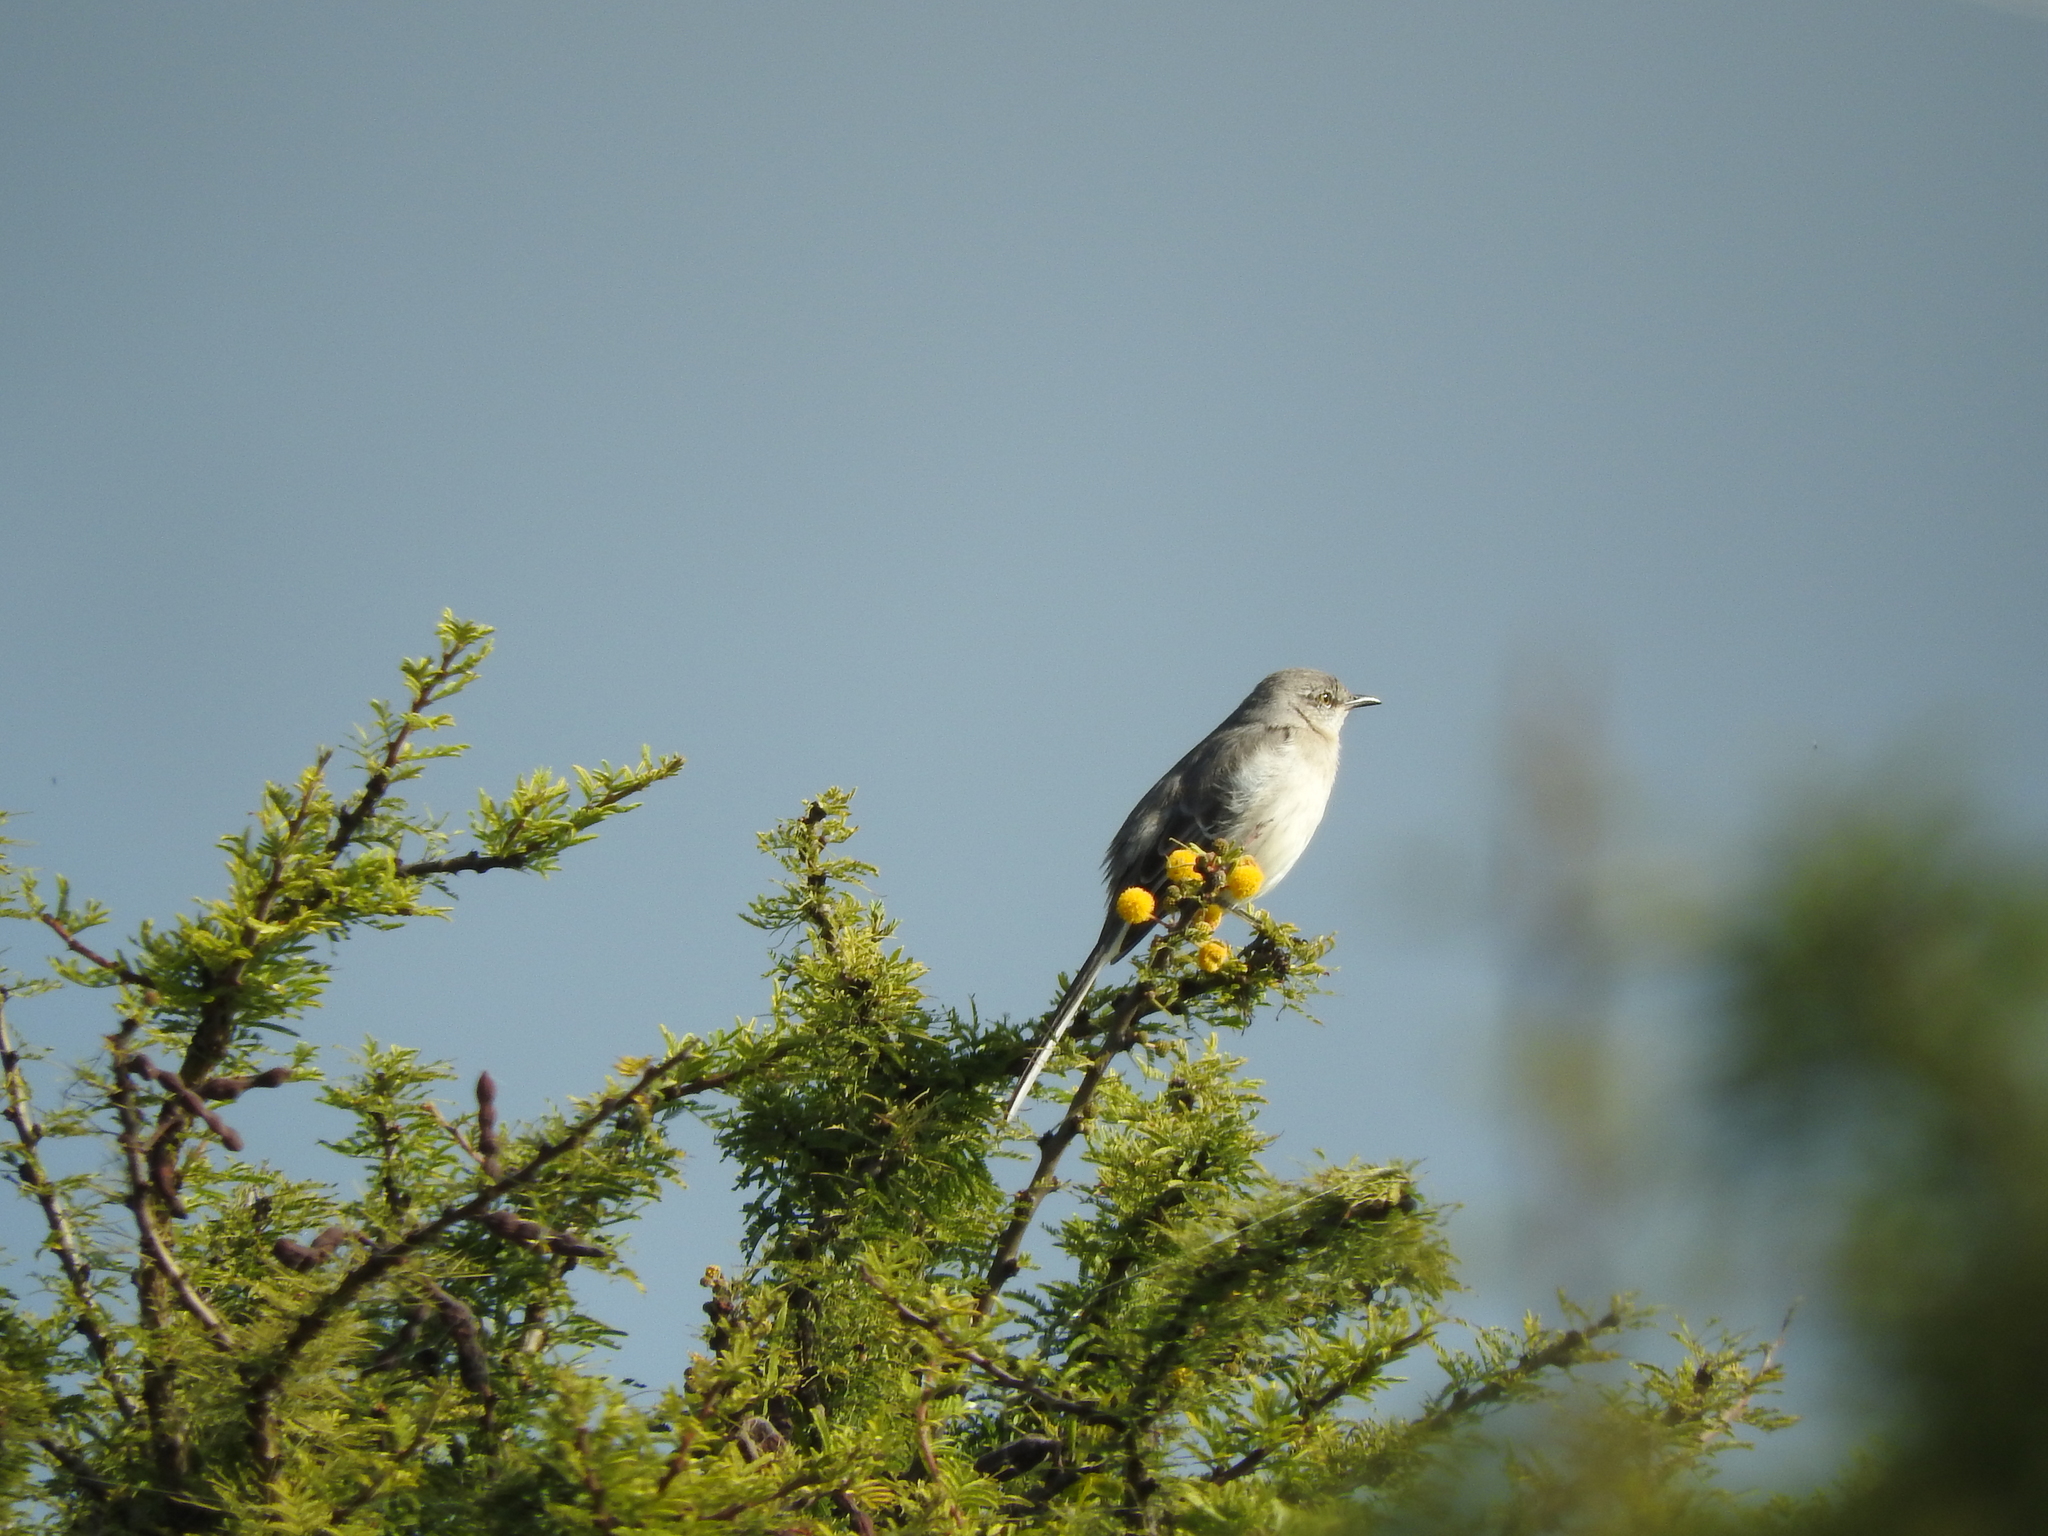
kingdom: Animalia
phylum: Chordata
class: Aves
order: Passeriformes
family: Mimidae
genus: Mimus
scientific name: Mimus polyglottos
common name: Northern mockingbird
